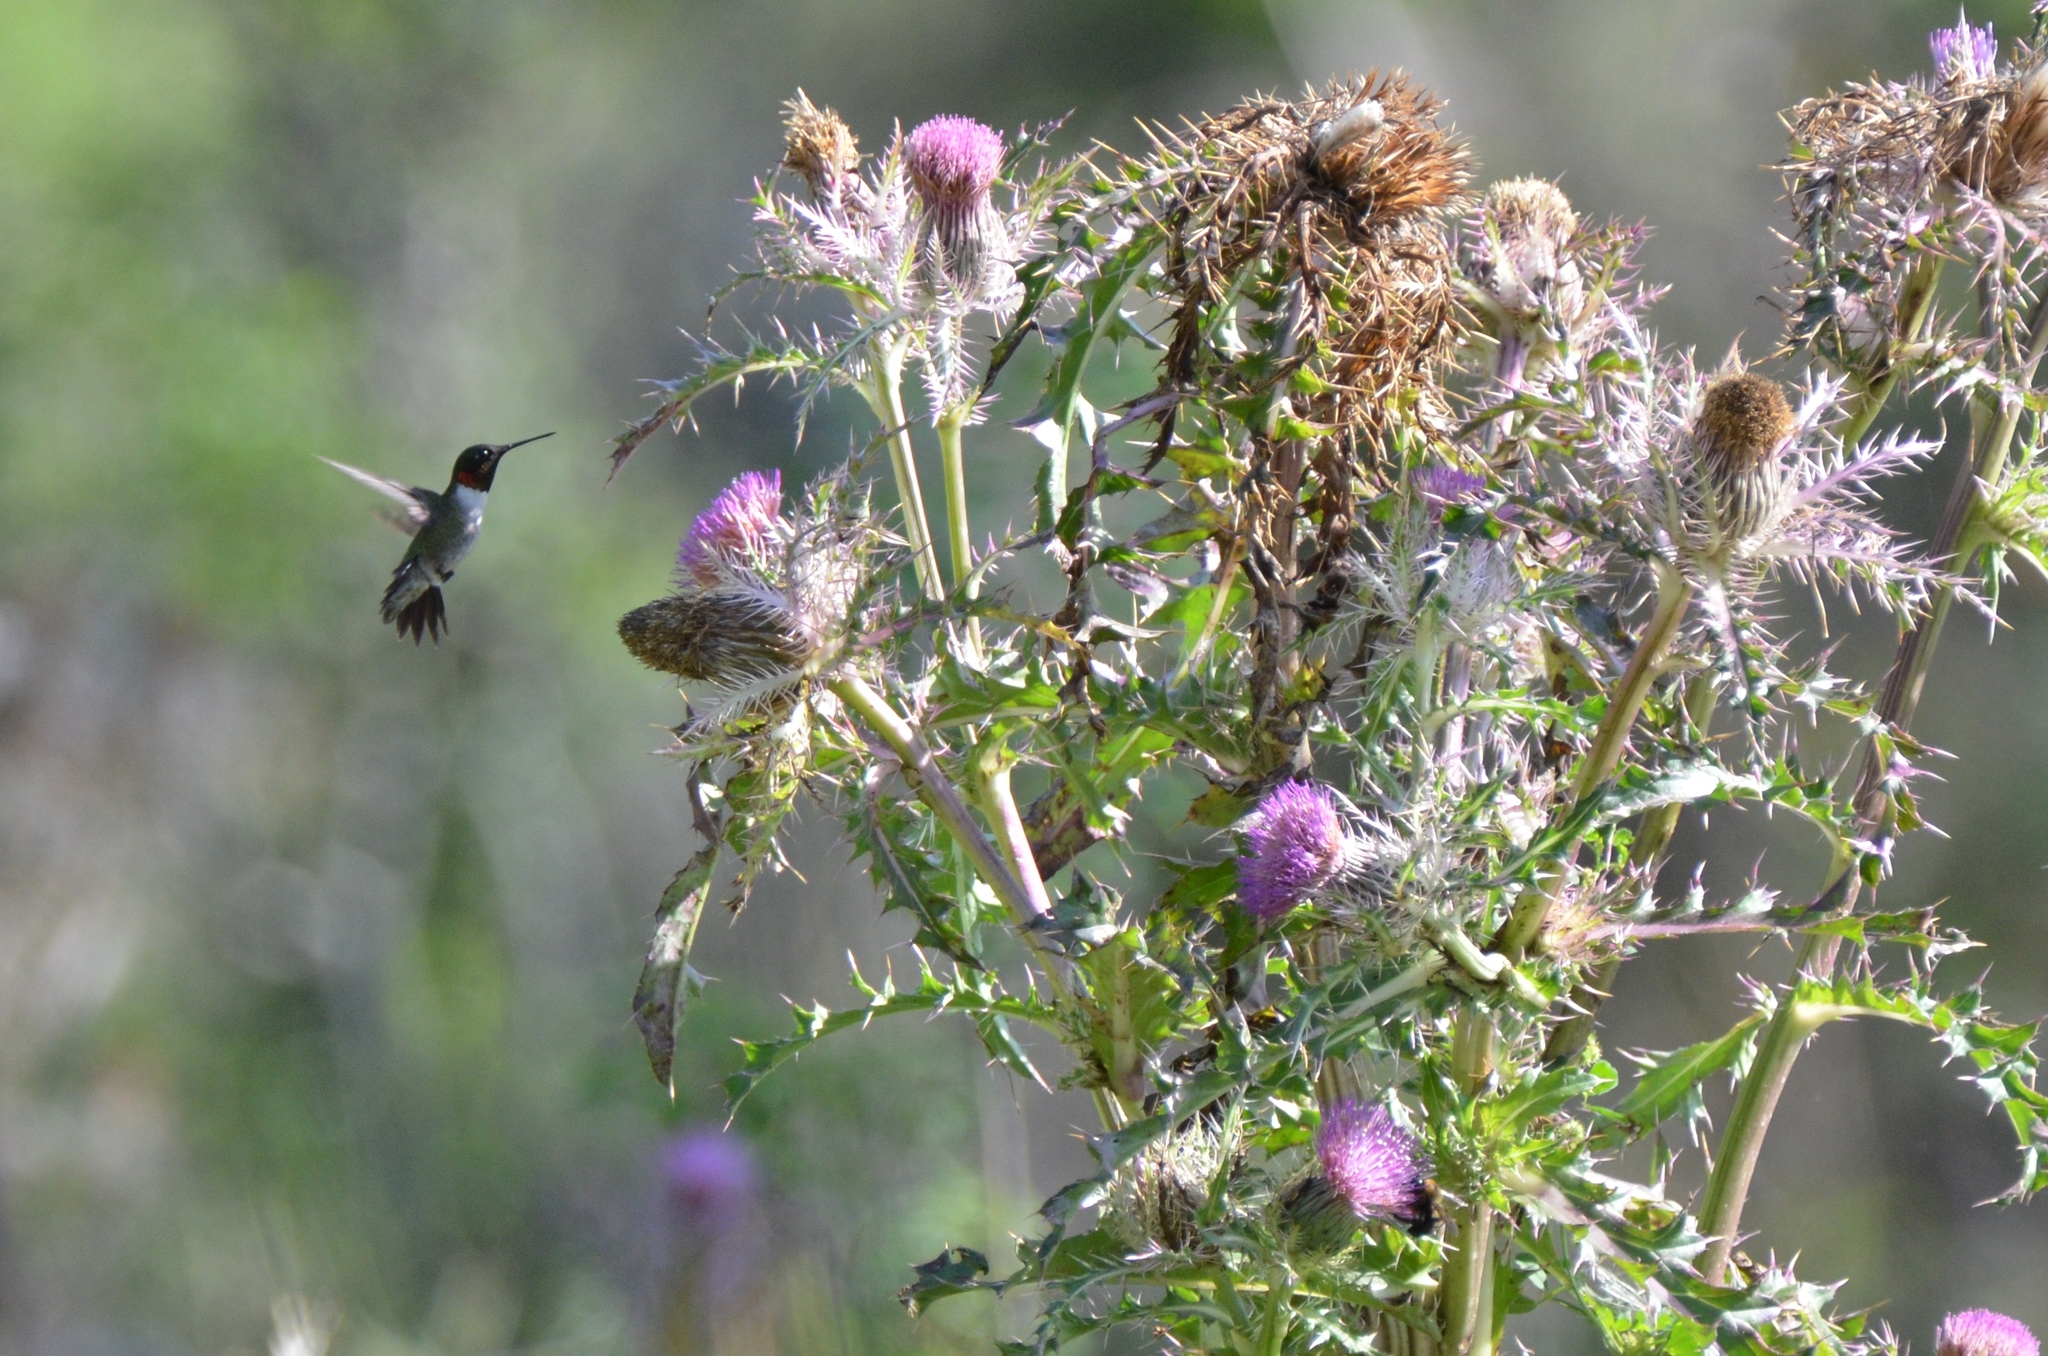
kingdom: Animalia
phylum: Chordata
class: Aves
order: Apodiformes
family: Trochilidae
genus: Archilochus
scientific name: Archilochus colubris
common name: Ruby-throated hummingbird
